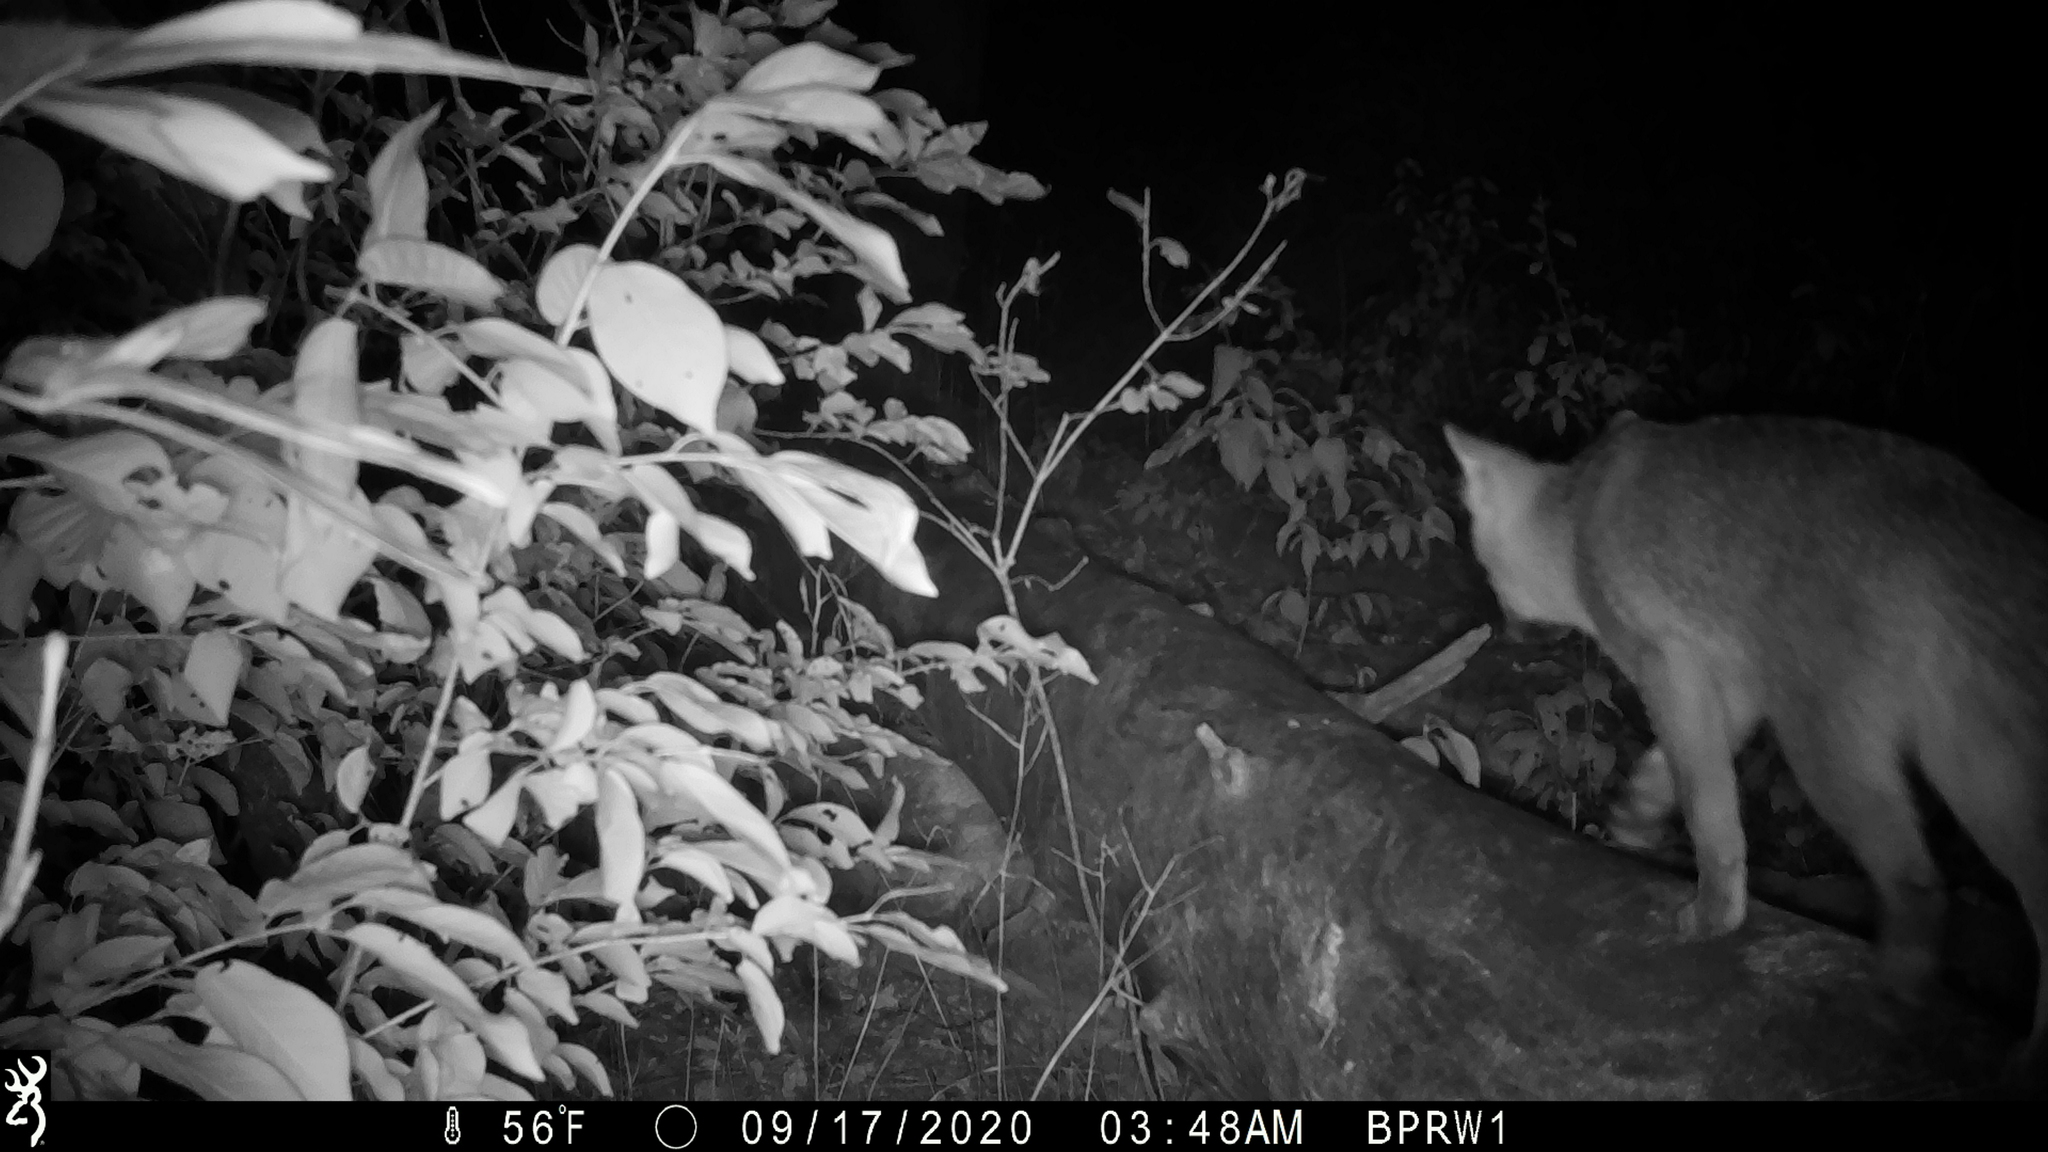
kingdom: Animalia
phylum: Chordata
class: Mammalia
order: Carnivora
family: Canidae
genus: Urocyon
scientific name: Urocyon cinereoargenteus
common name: Gray fox
